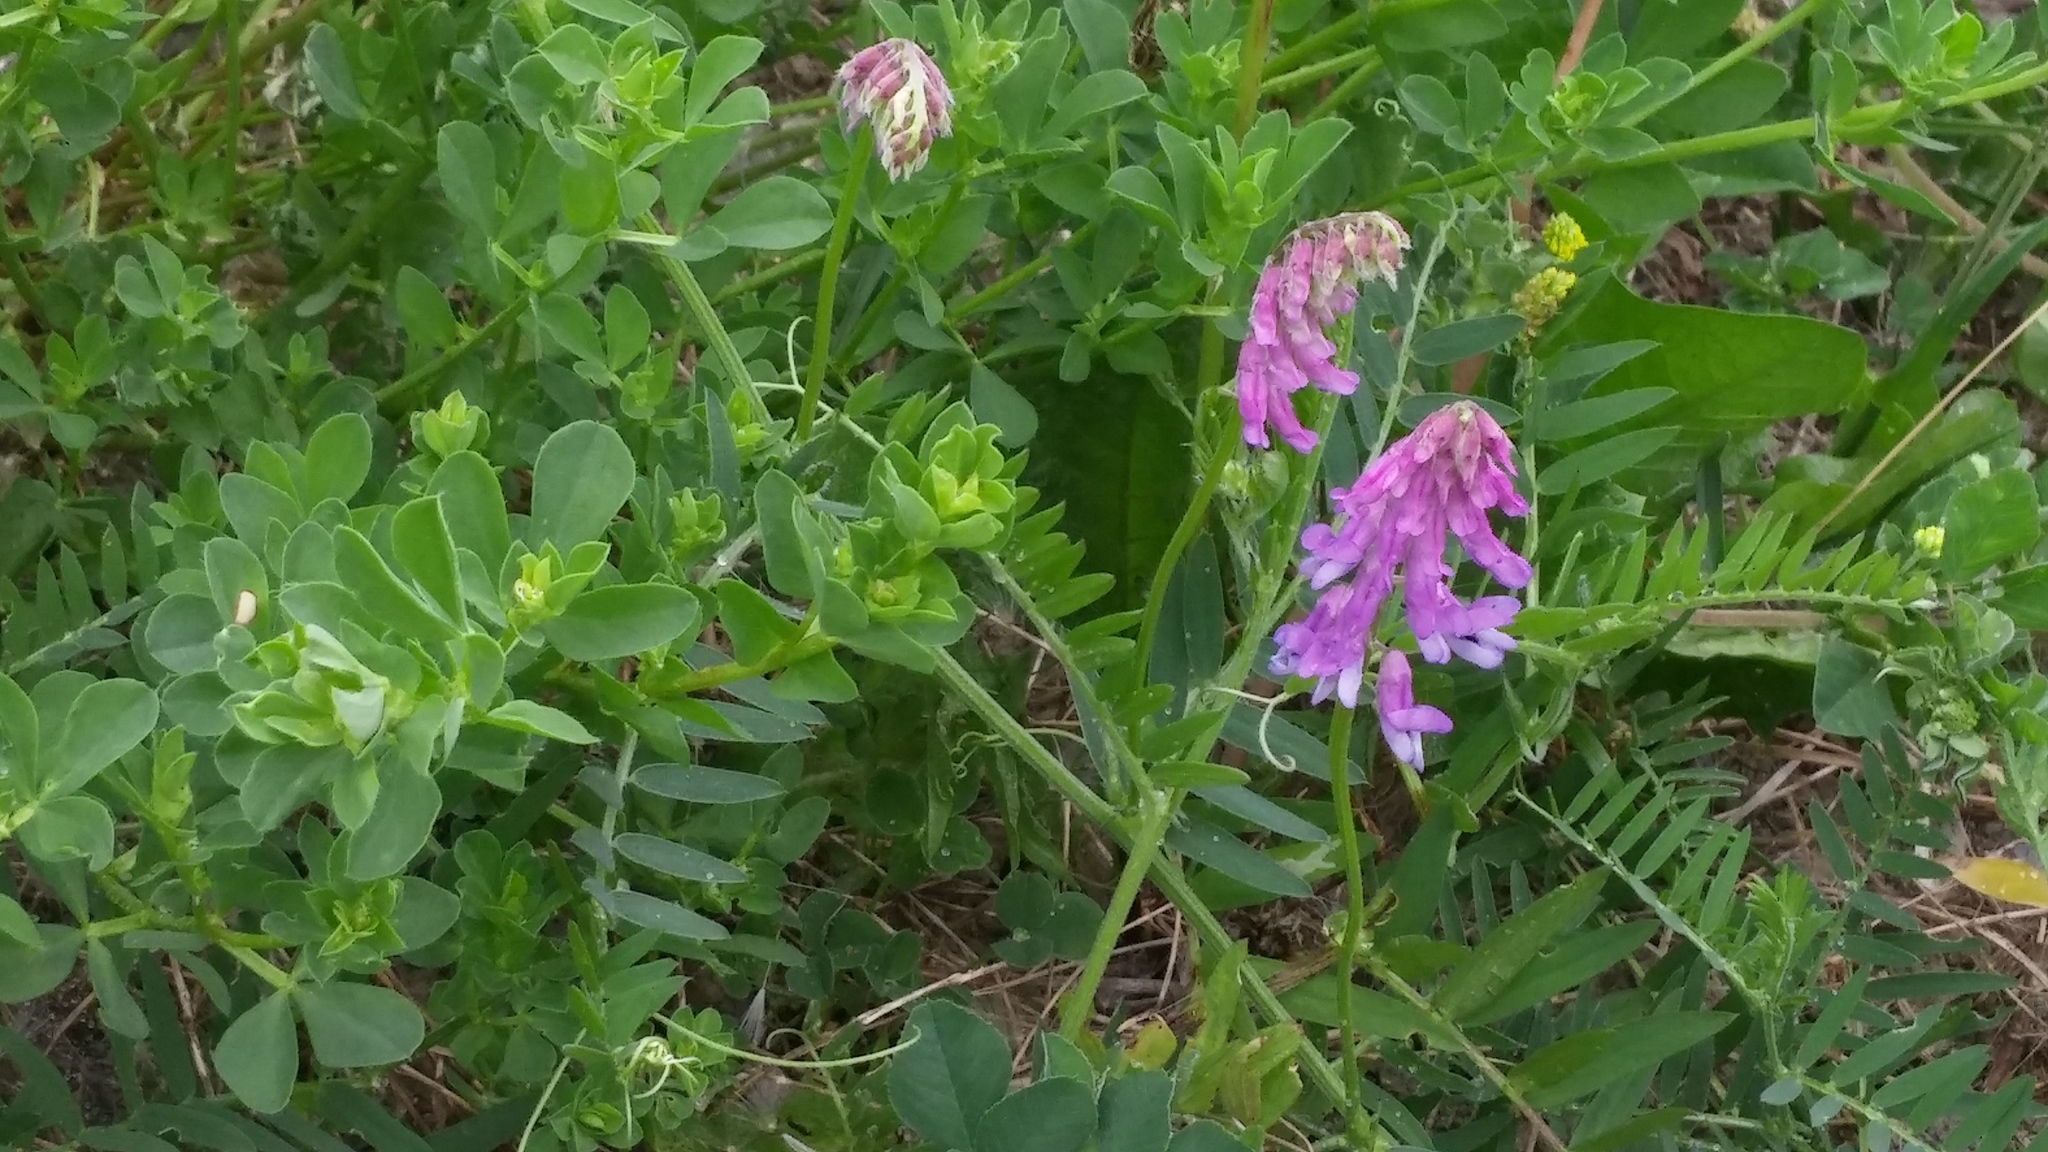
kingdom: Plantae
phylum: Tracheophyta
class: Magnoliopsida
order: Fabales
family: Fabaceae
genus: Vicia
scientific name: Vicia cracca
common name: Bird vetch
